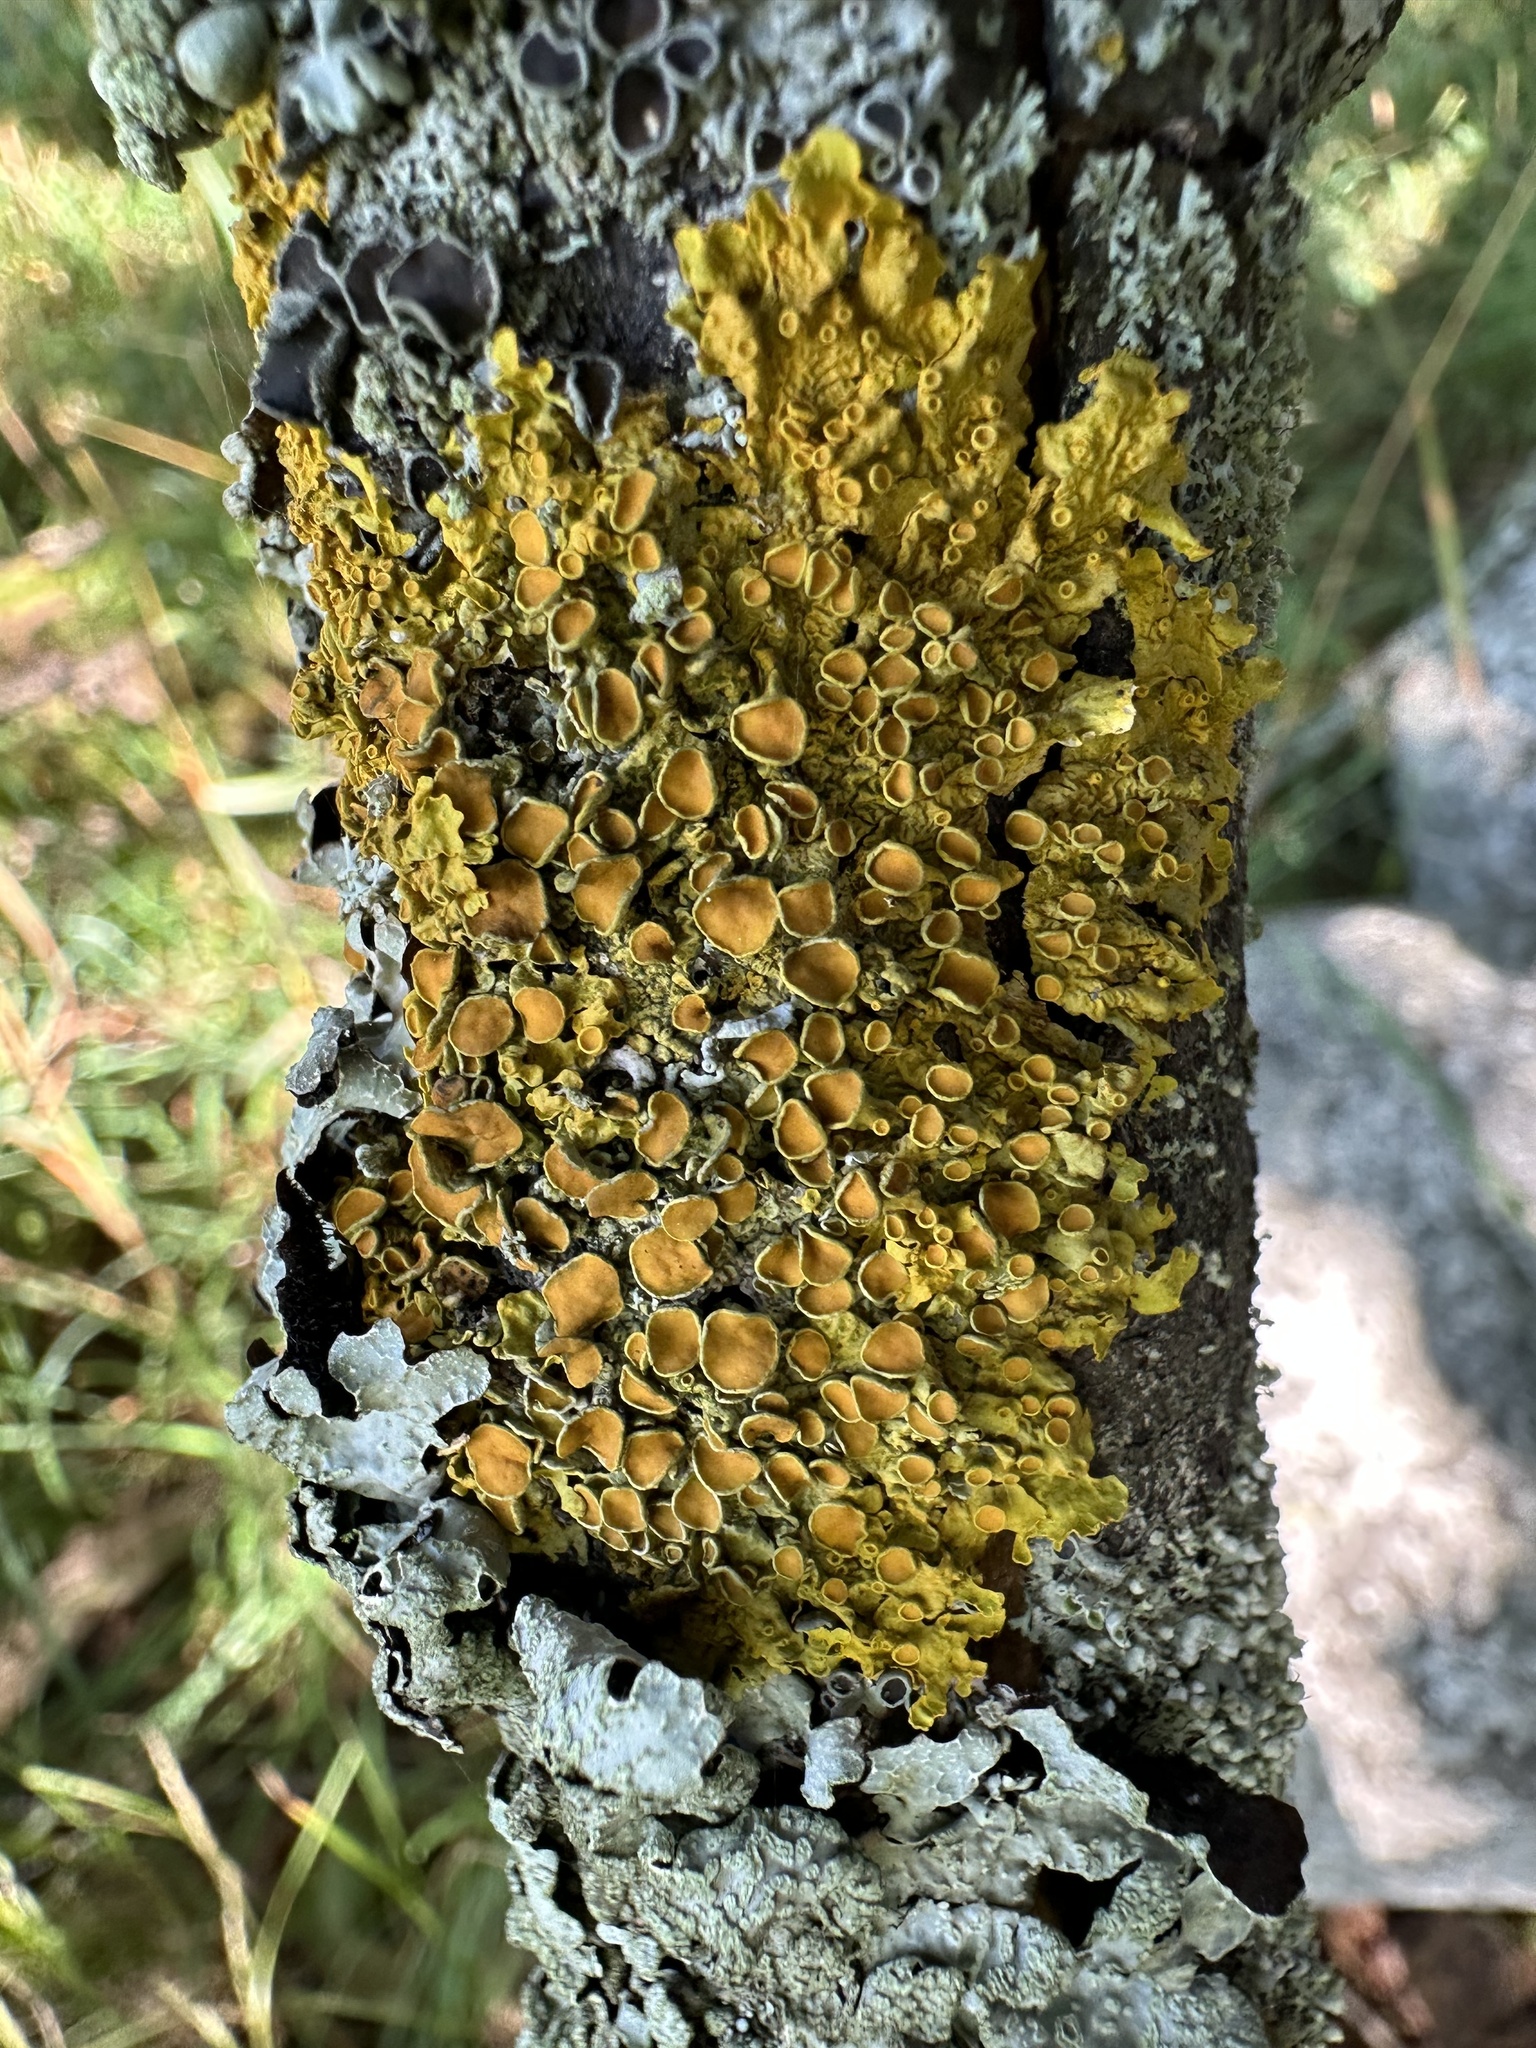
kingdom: Fungi
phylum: Ascomycota
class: Lecanoromycetes
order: Teloschistales
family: Teloschistaceae
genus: Xanthoria
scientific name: Xanthoria parietina
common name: Common orange lichen
